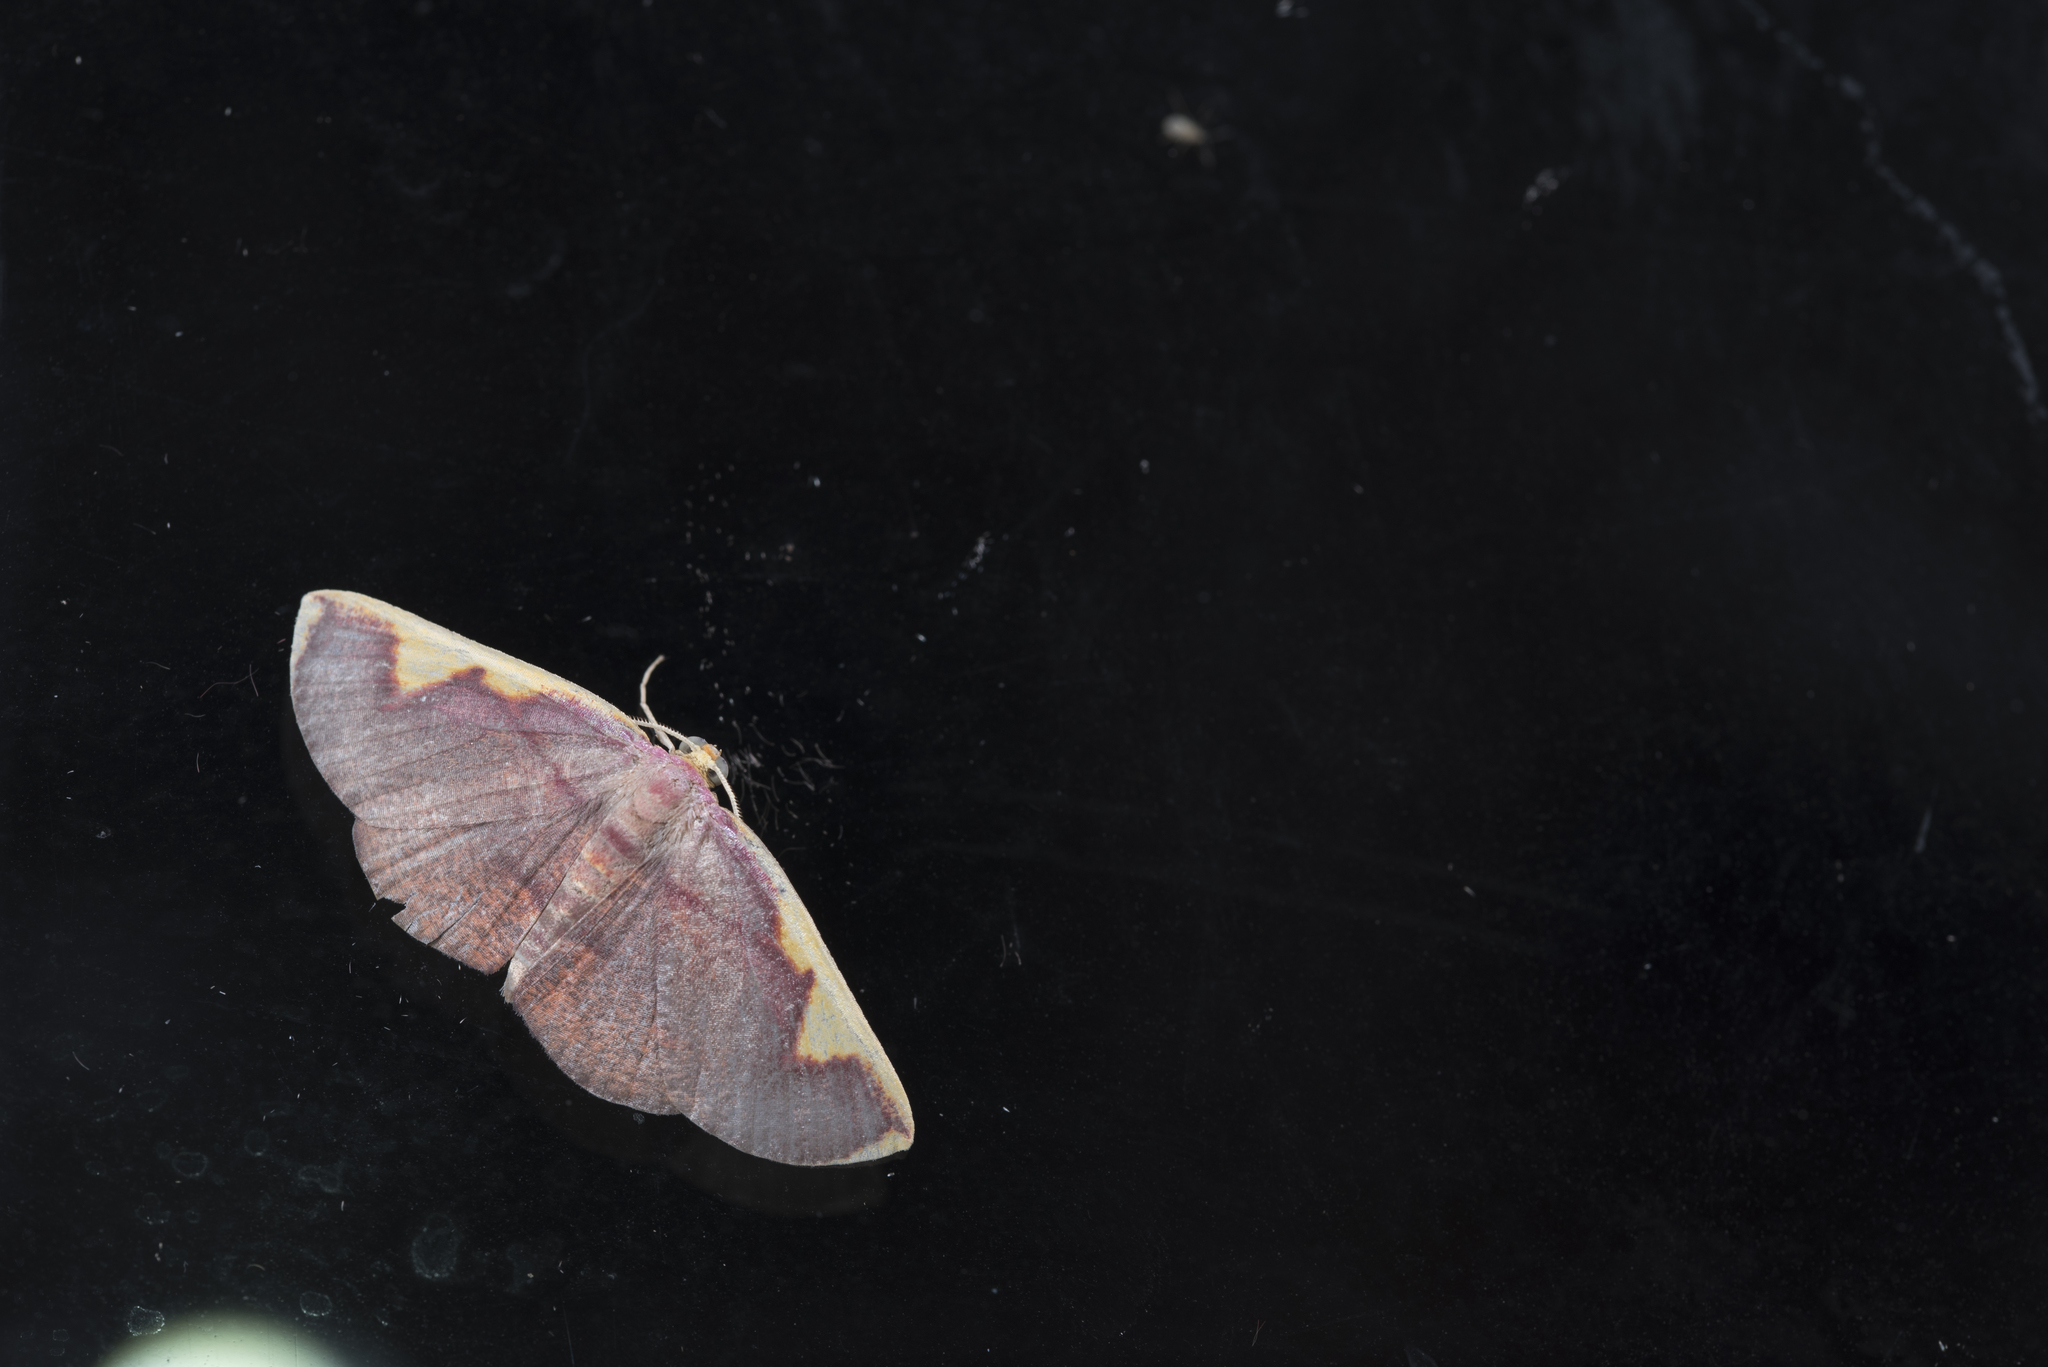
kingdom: Animalia
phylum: Arthropoda
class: Insecta
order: Lepidoptera
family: Geometridae
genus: Nothomiza
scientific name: Nothomiza flavicosta
